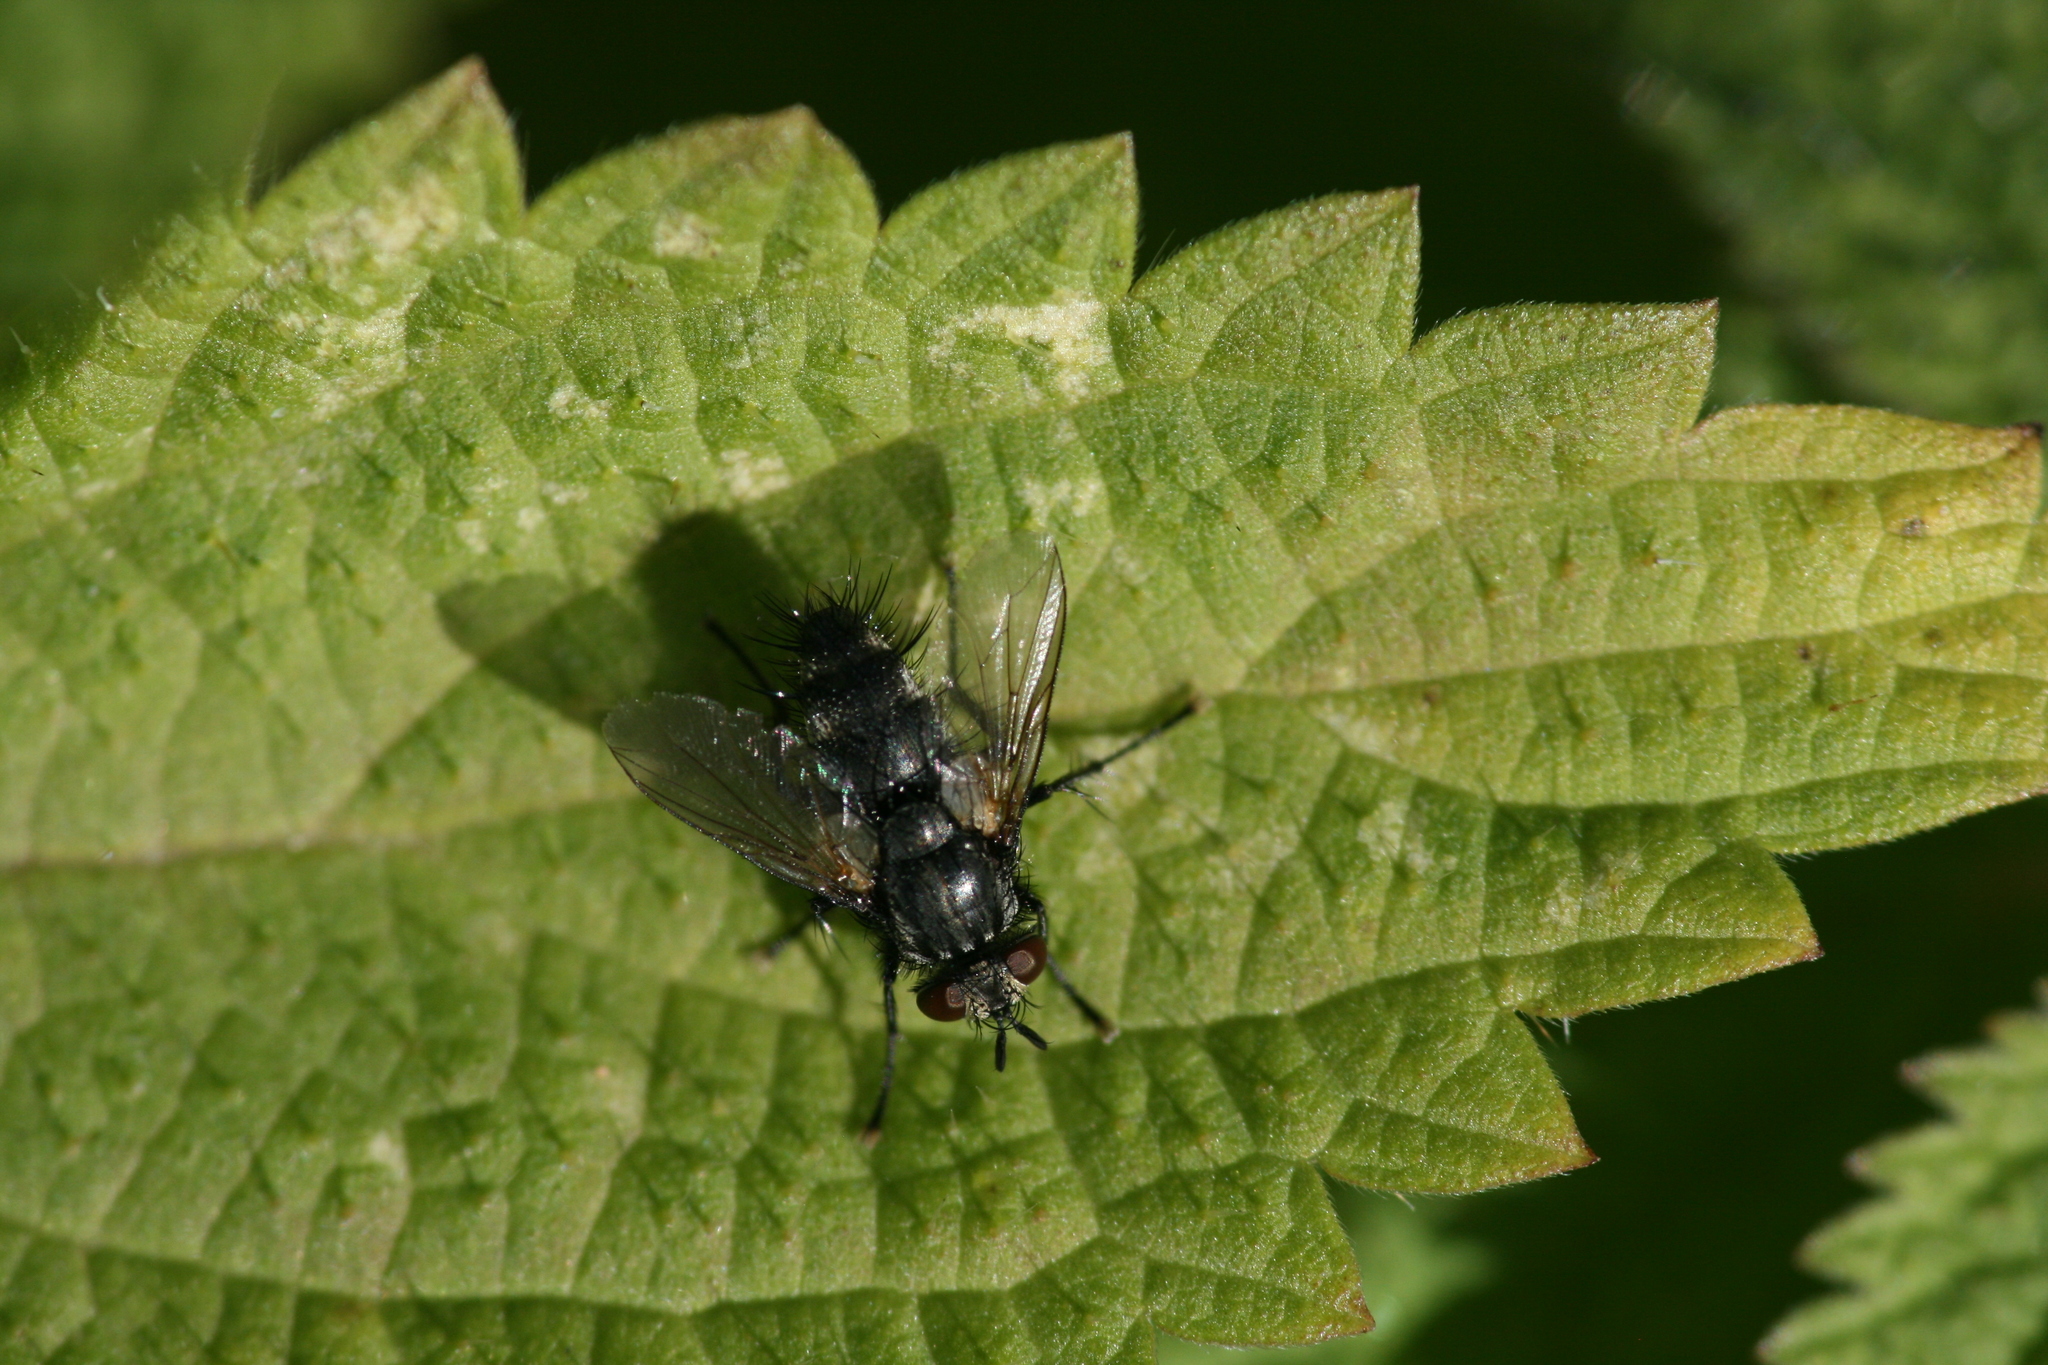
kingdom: Animalia
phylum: Arthropoda
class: Insecta
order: Diptera
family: Tachinidae
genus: Voria
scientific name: Voria ruralis
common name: Parasitic fly
